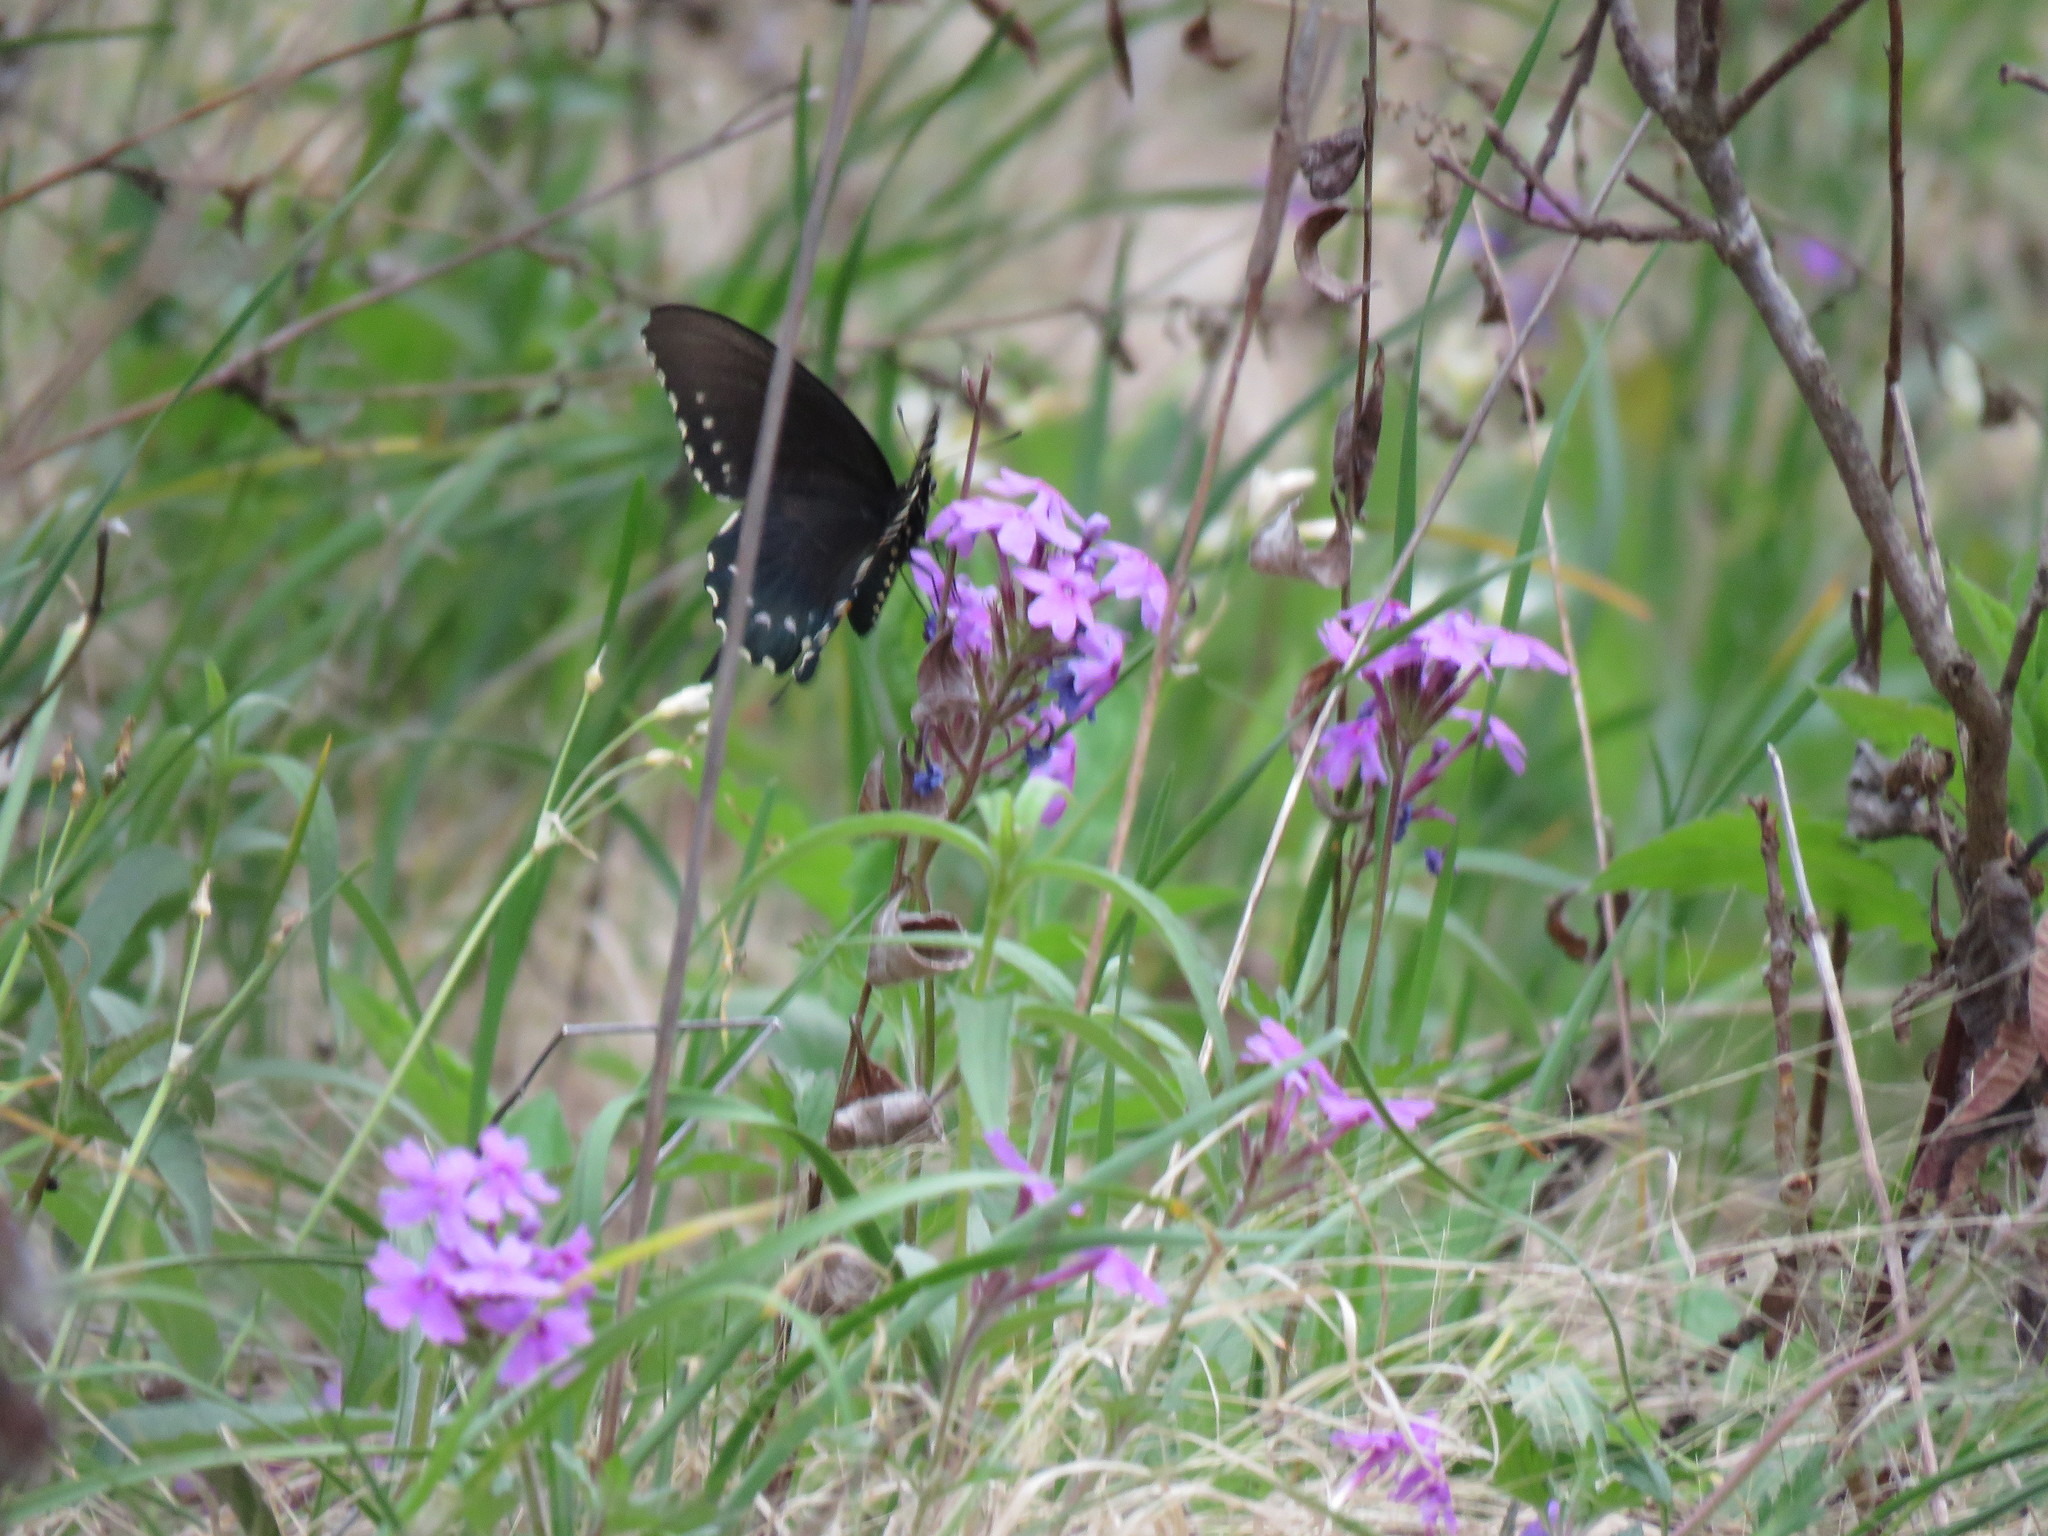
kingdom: Animalia
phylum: Arthropoda
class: Insecta
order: Lepidoptera
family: Papilionidae
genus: Battus
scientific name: Battus philenor
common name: Pipevine swallowtail
